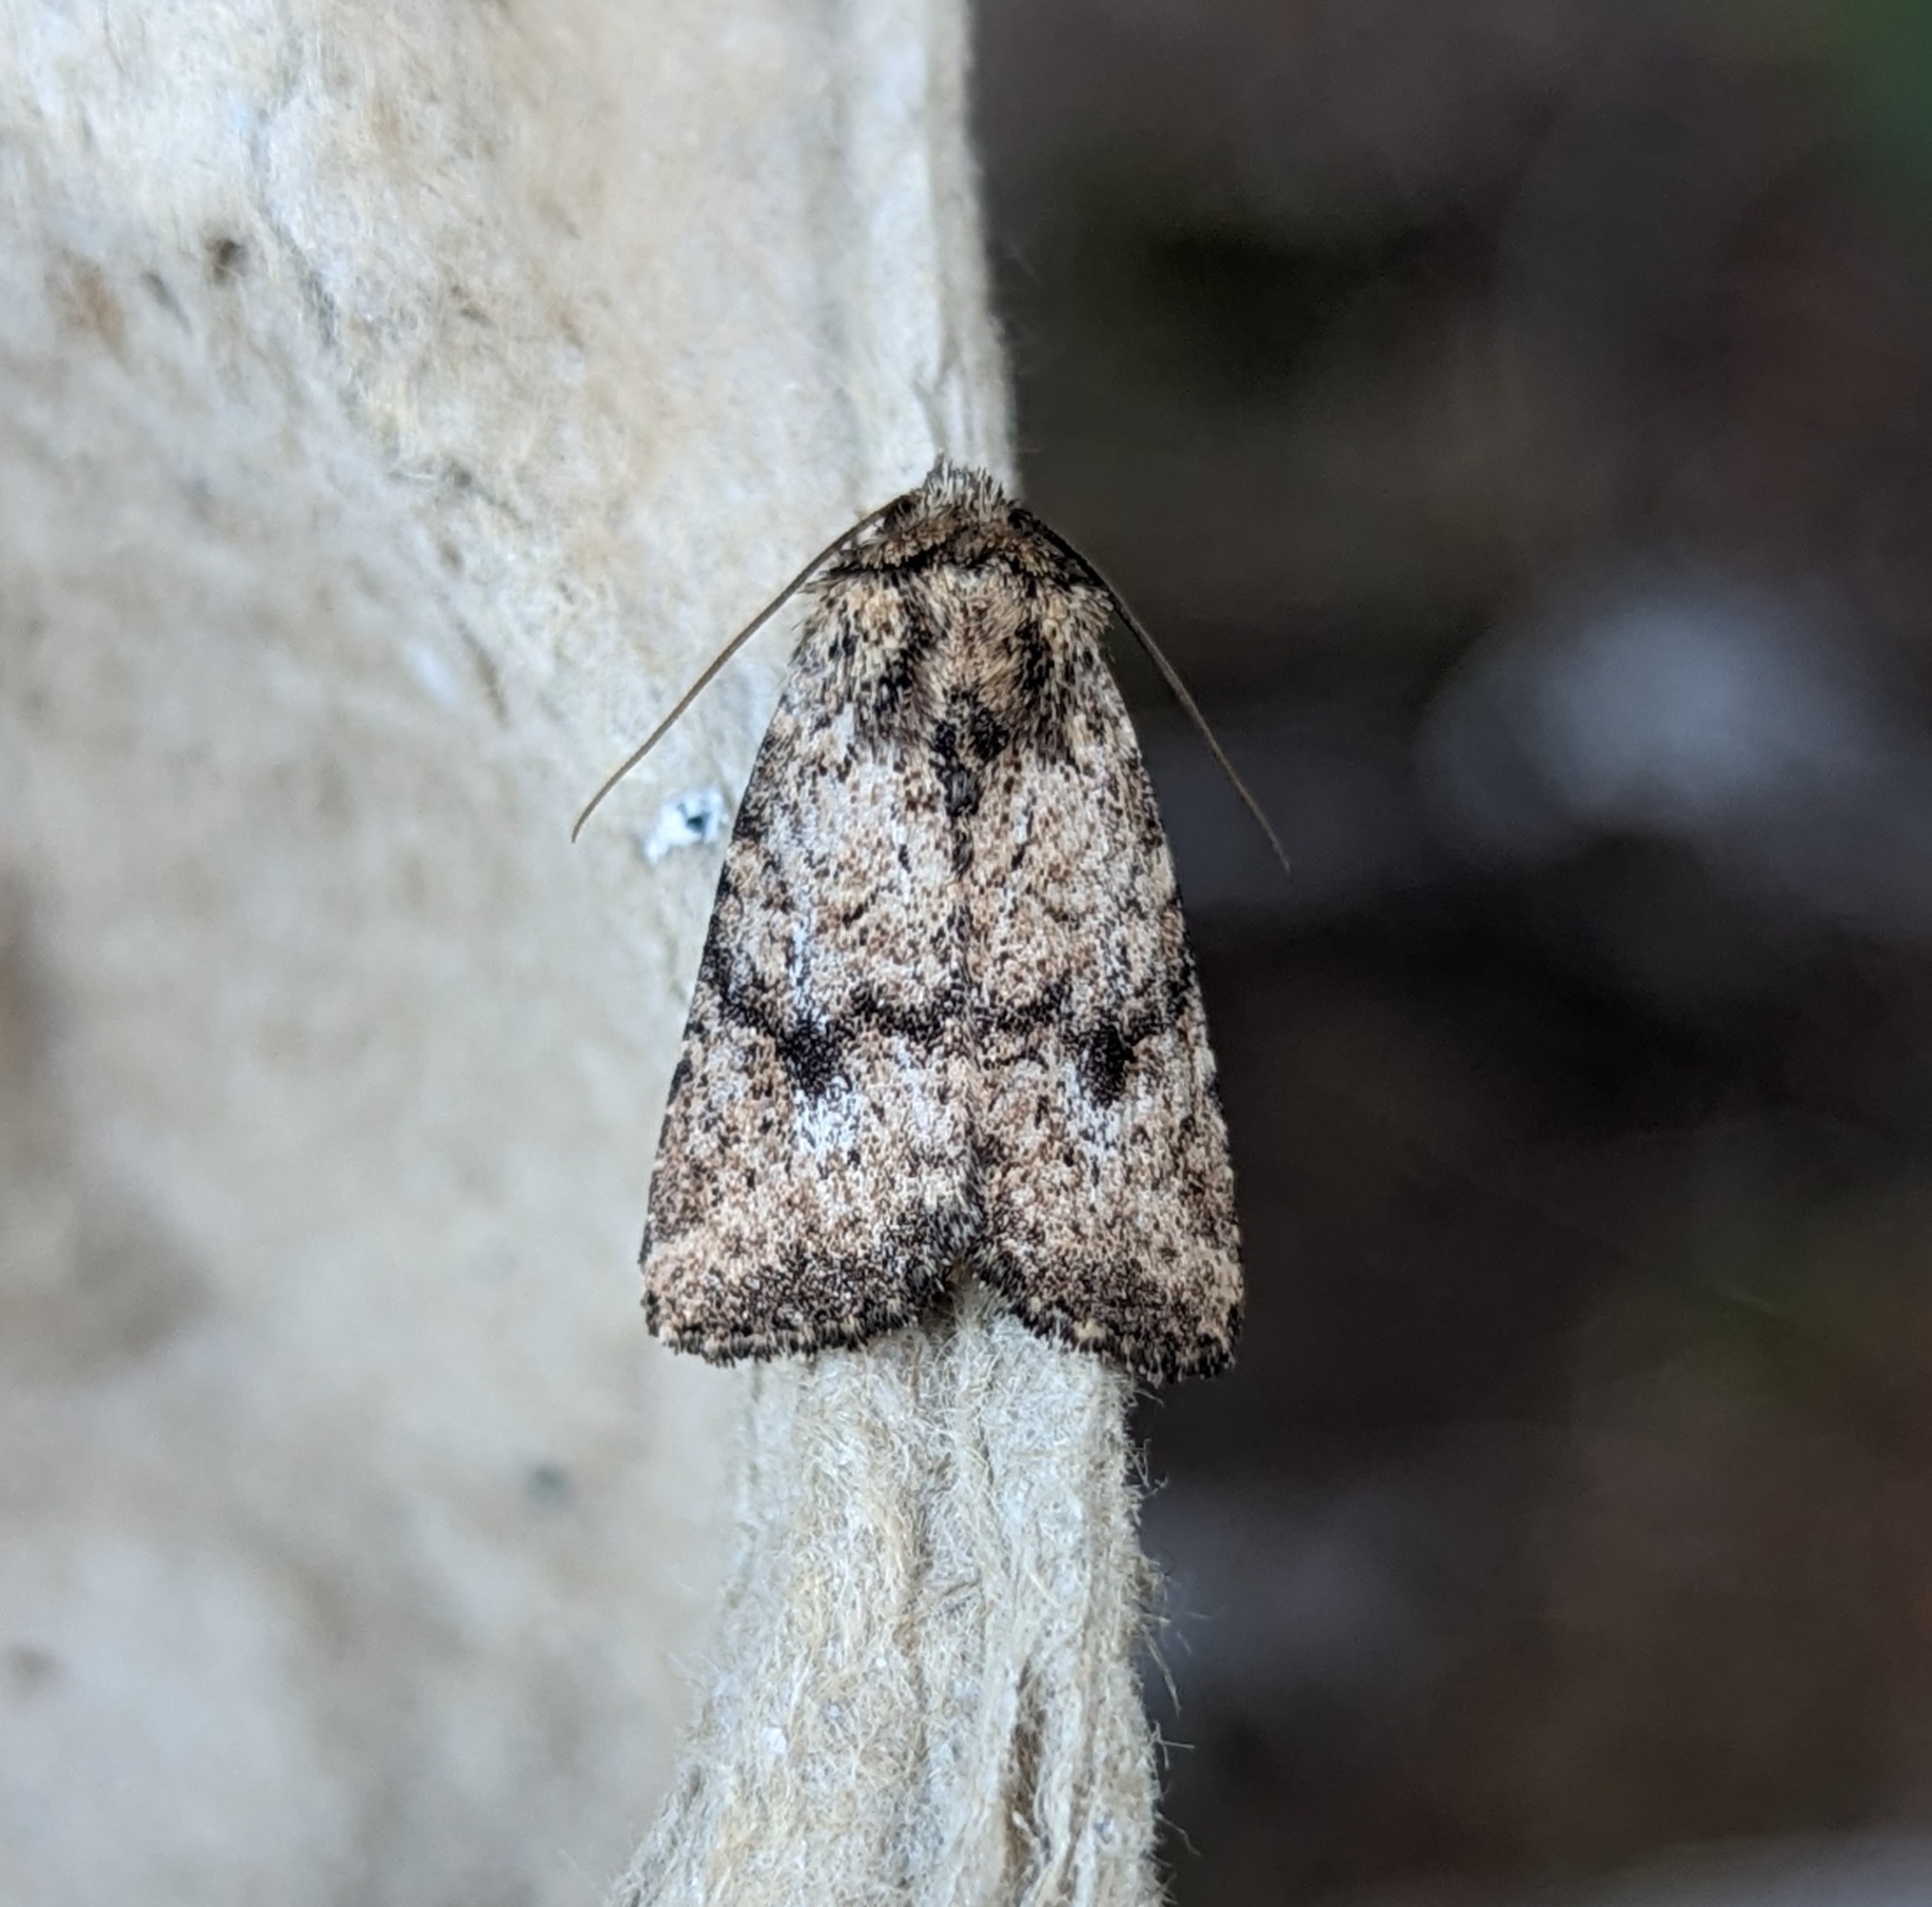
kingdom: Animalia
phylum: Arthropoda
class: Insecta
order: Lepidoptera
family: Noctuidae
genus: Homorthodes
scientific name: Homorthodes hanhami
